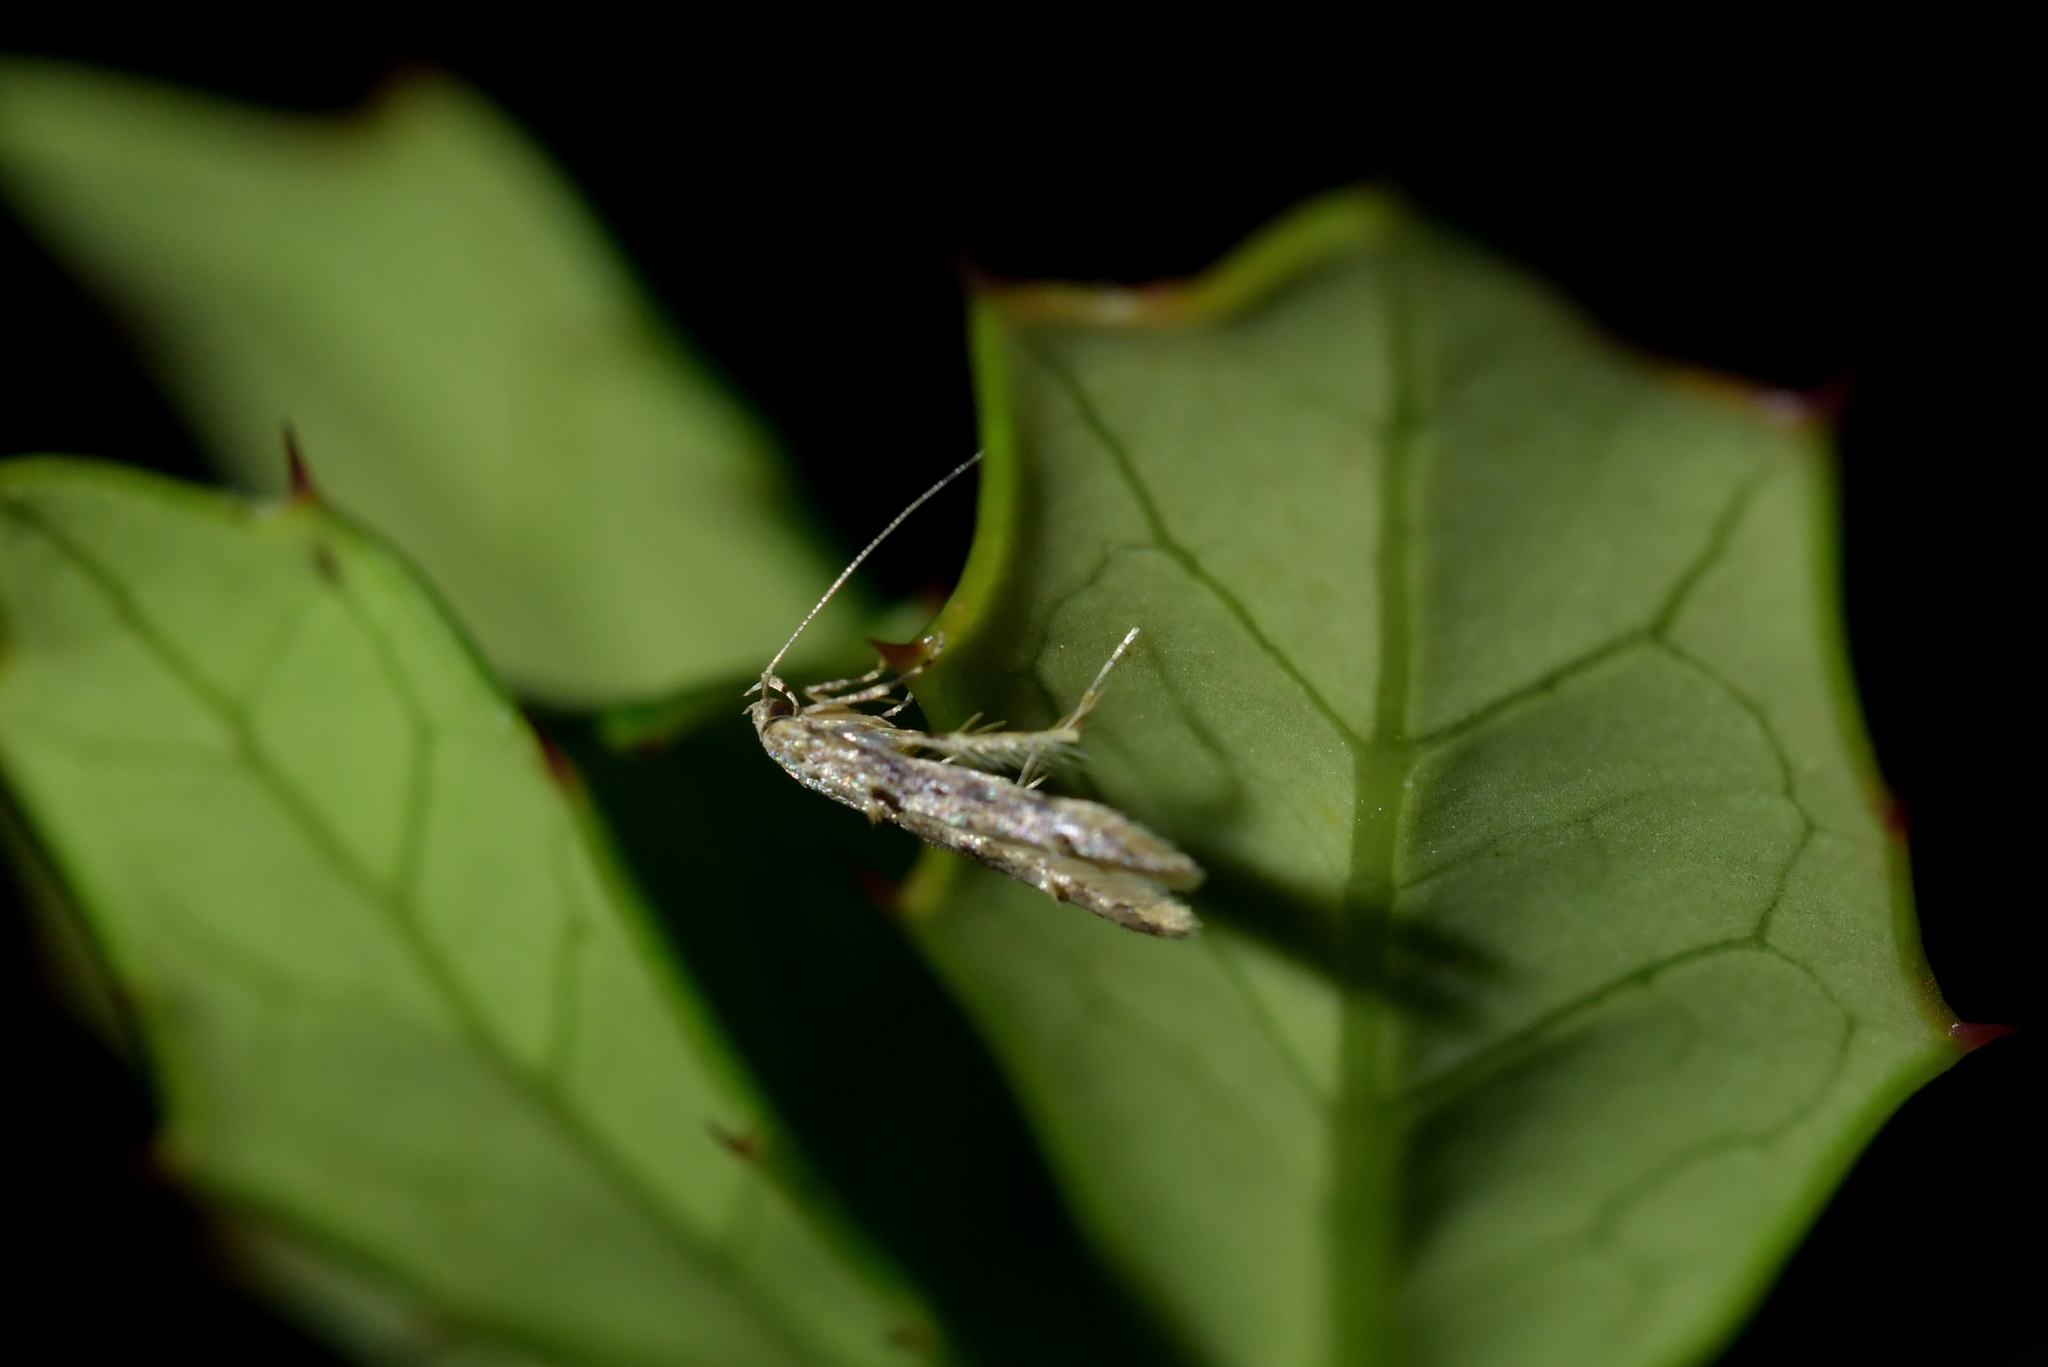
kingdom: Animalia
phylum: Arthropoda
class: Insecta
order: Lepidoptera
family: Elachistidae
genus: Microcolona
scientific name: Microcolona limodes
